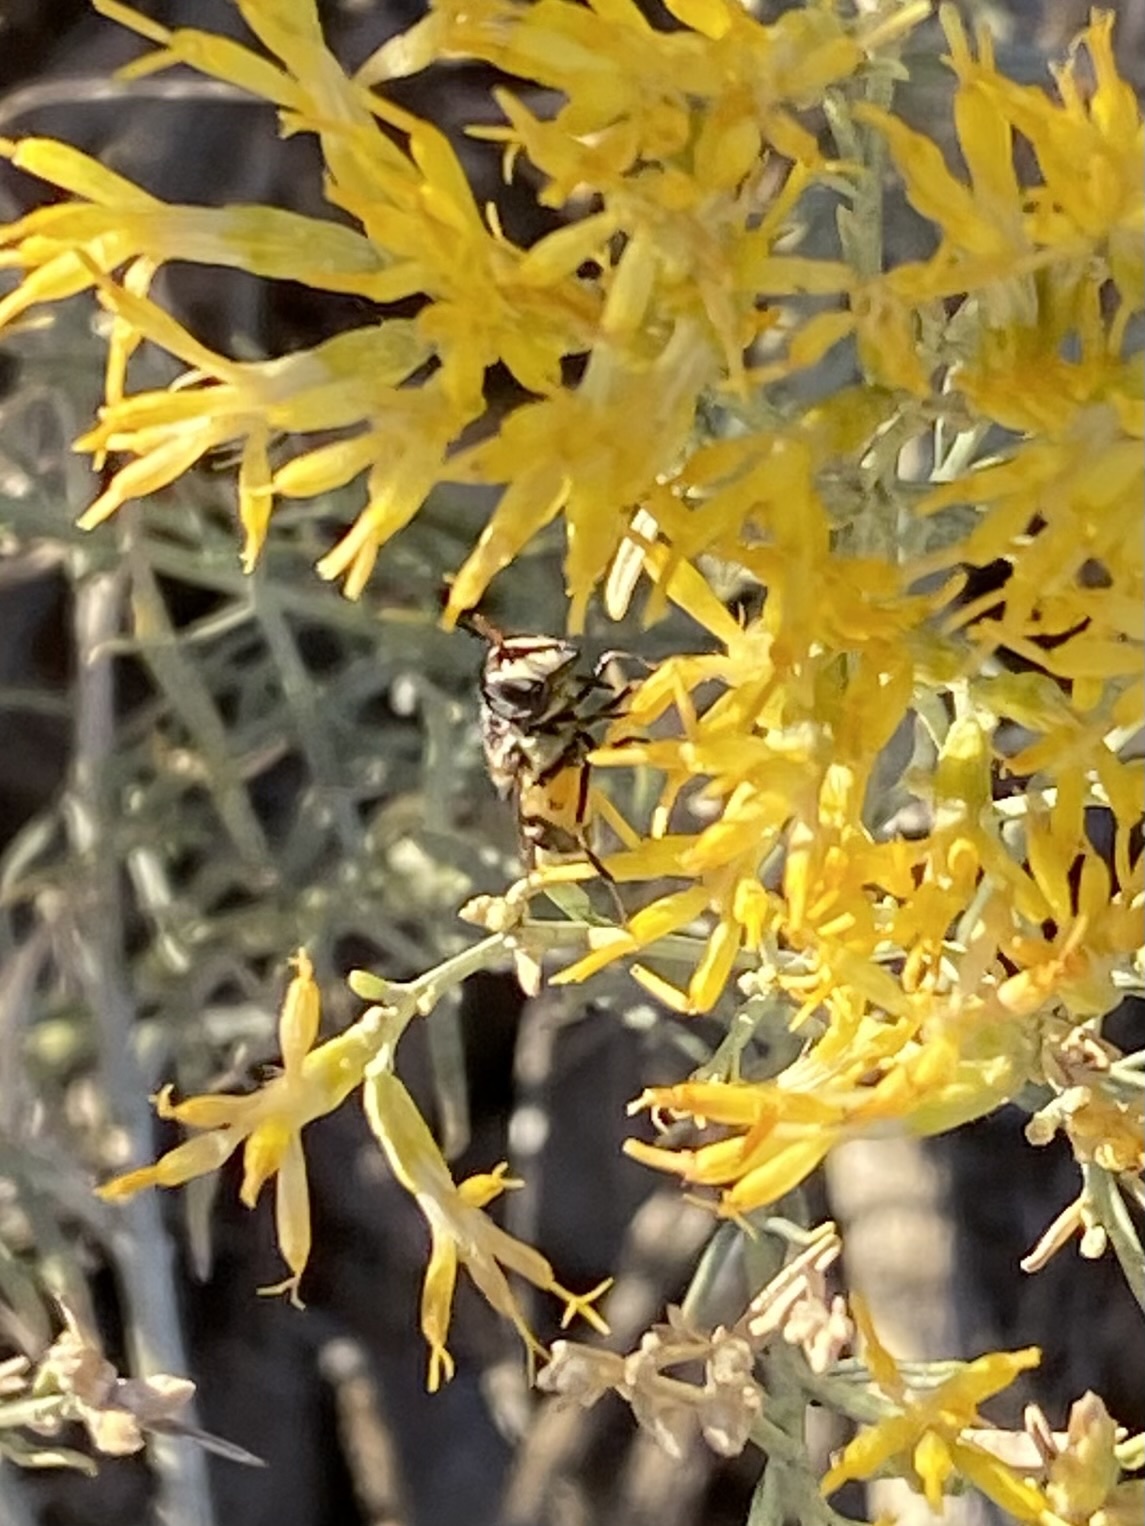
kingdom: Animalia
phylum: Arthropoda
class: Insecta
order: Diptera
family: Syrphidae
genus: Copestylum
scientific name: Copestylum marginatum
